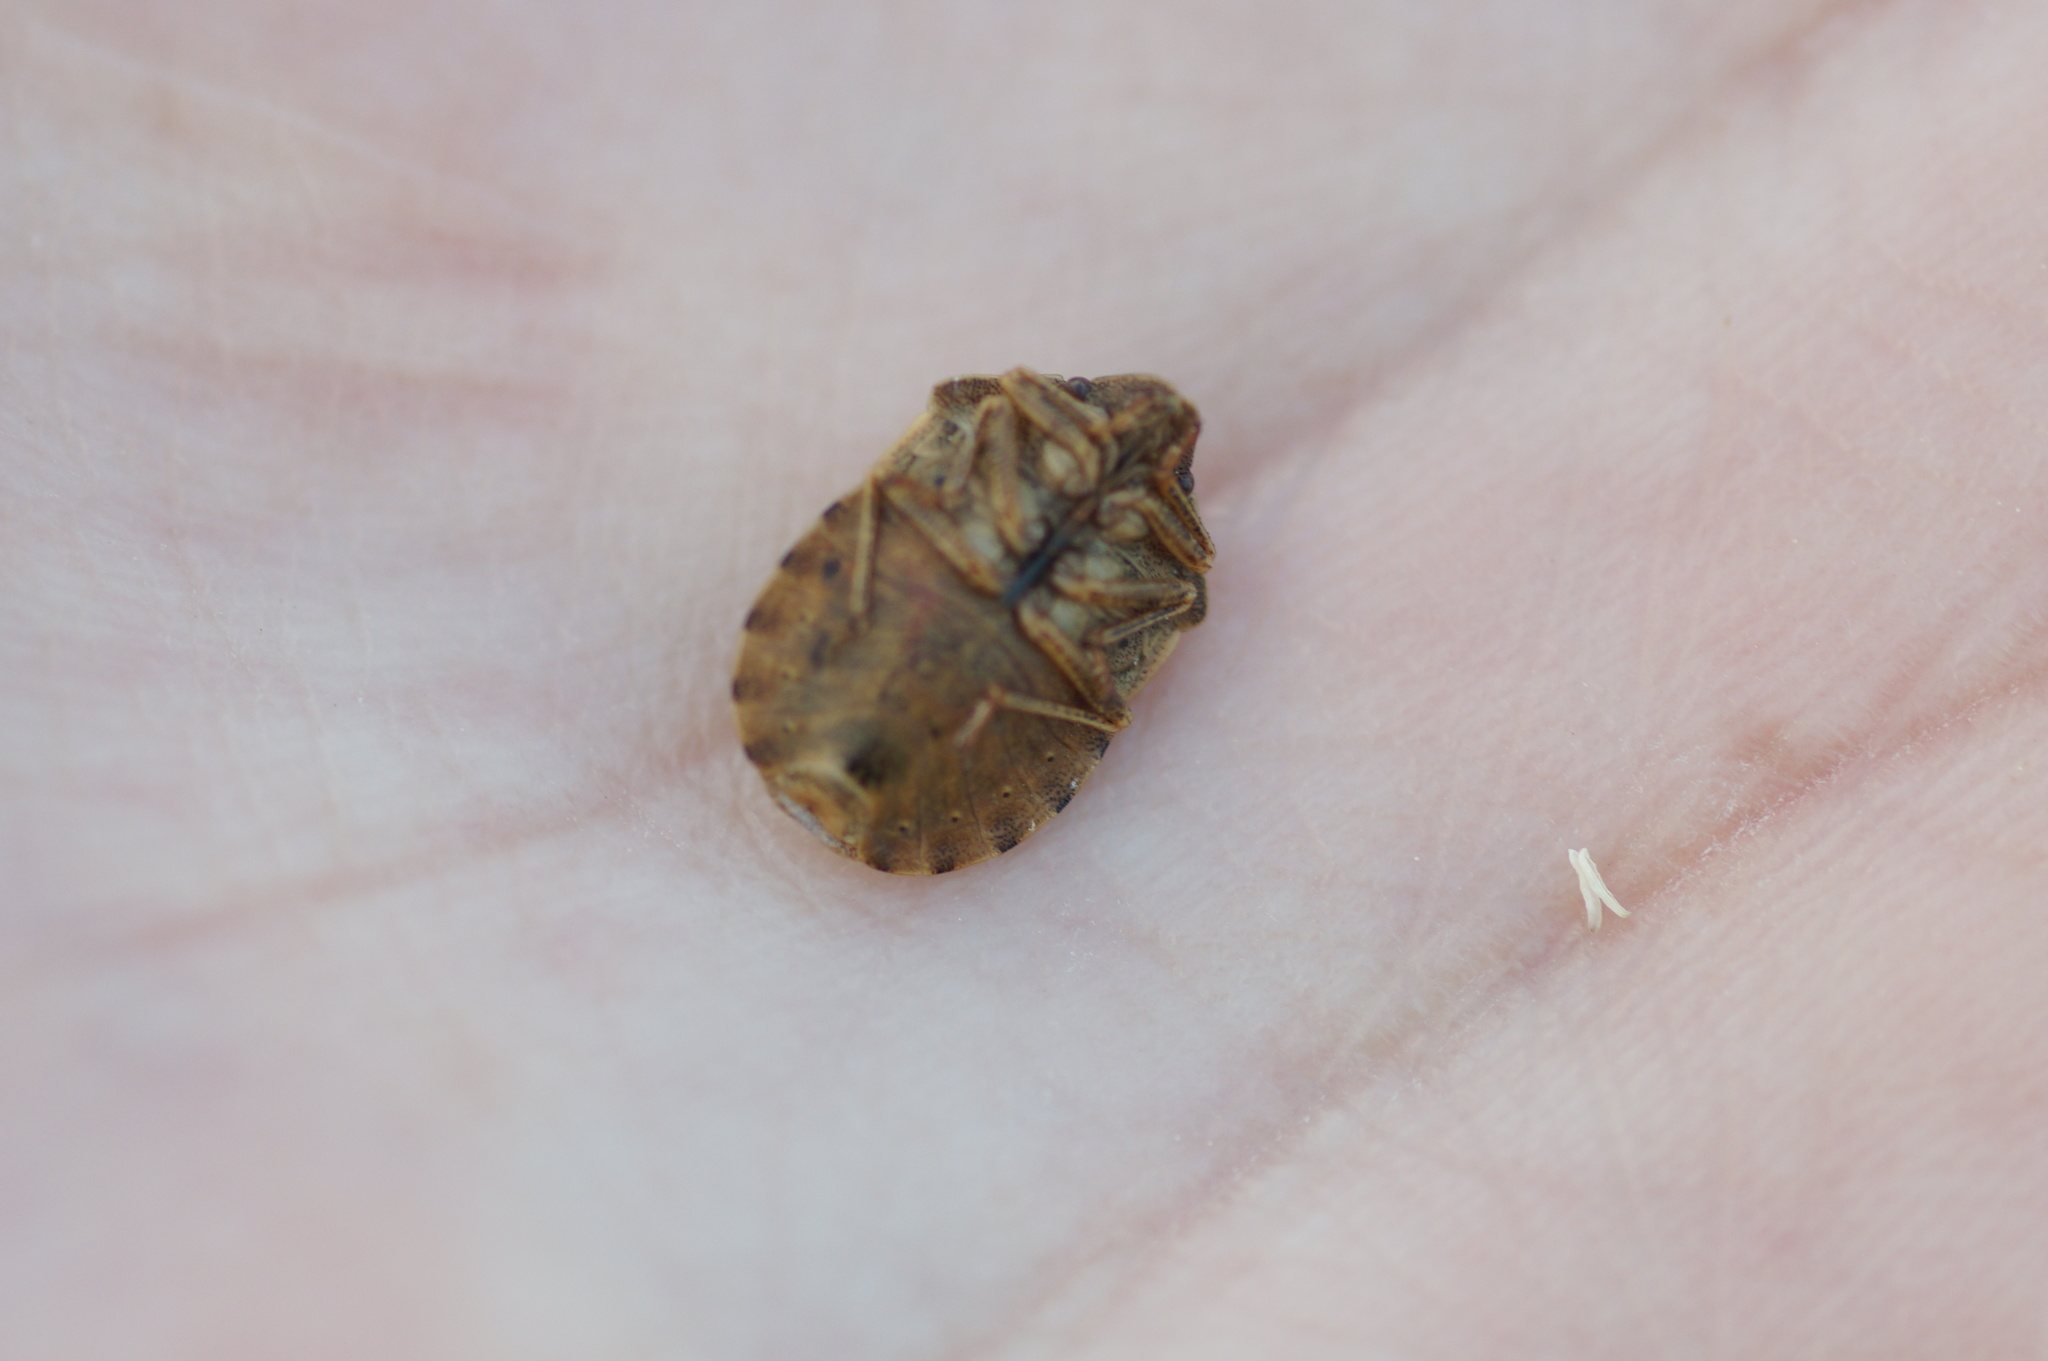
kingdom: Animalia
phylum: Arthropoda
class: Insecta
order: Hemiptera
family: Scutelleridae
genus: Eurygaster
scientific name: Eurygaster testudinaria
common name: Tortoise bug
